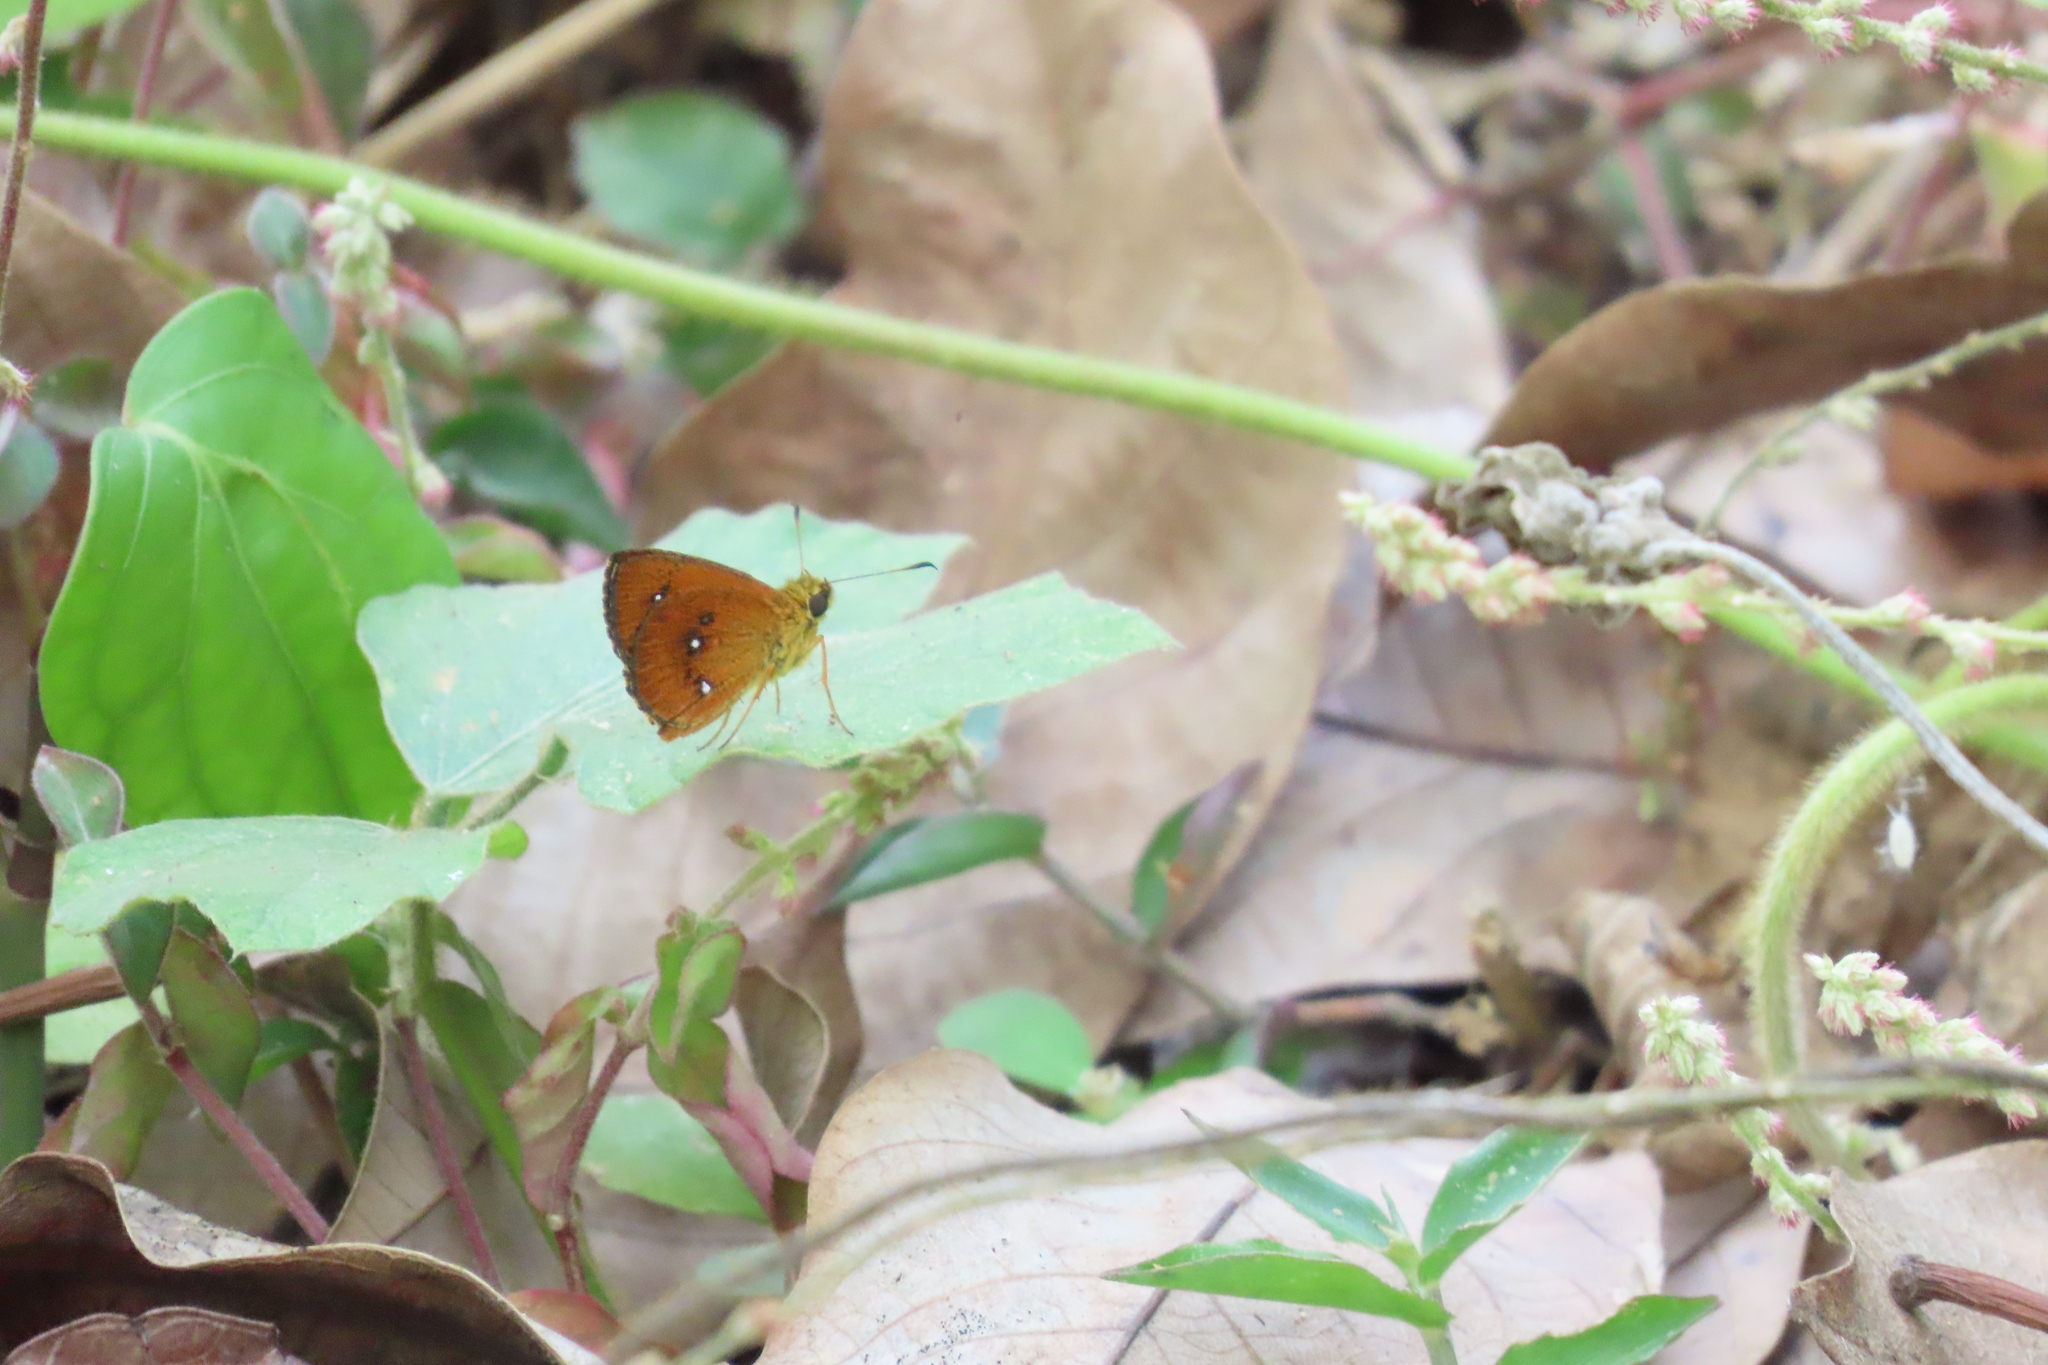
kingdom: Animalia
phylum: Arthropoda
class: Insecta
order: Lepidoptera
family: Hesperiidae
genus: Iambrix
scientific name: Iambrix salsala
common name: Chestnut bob
